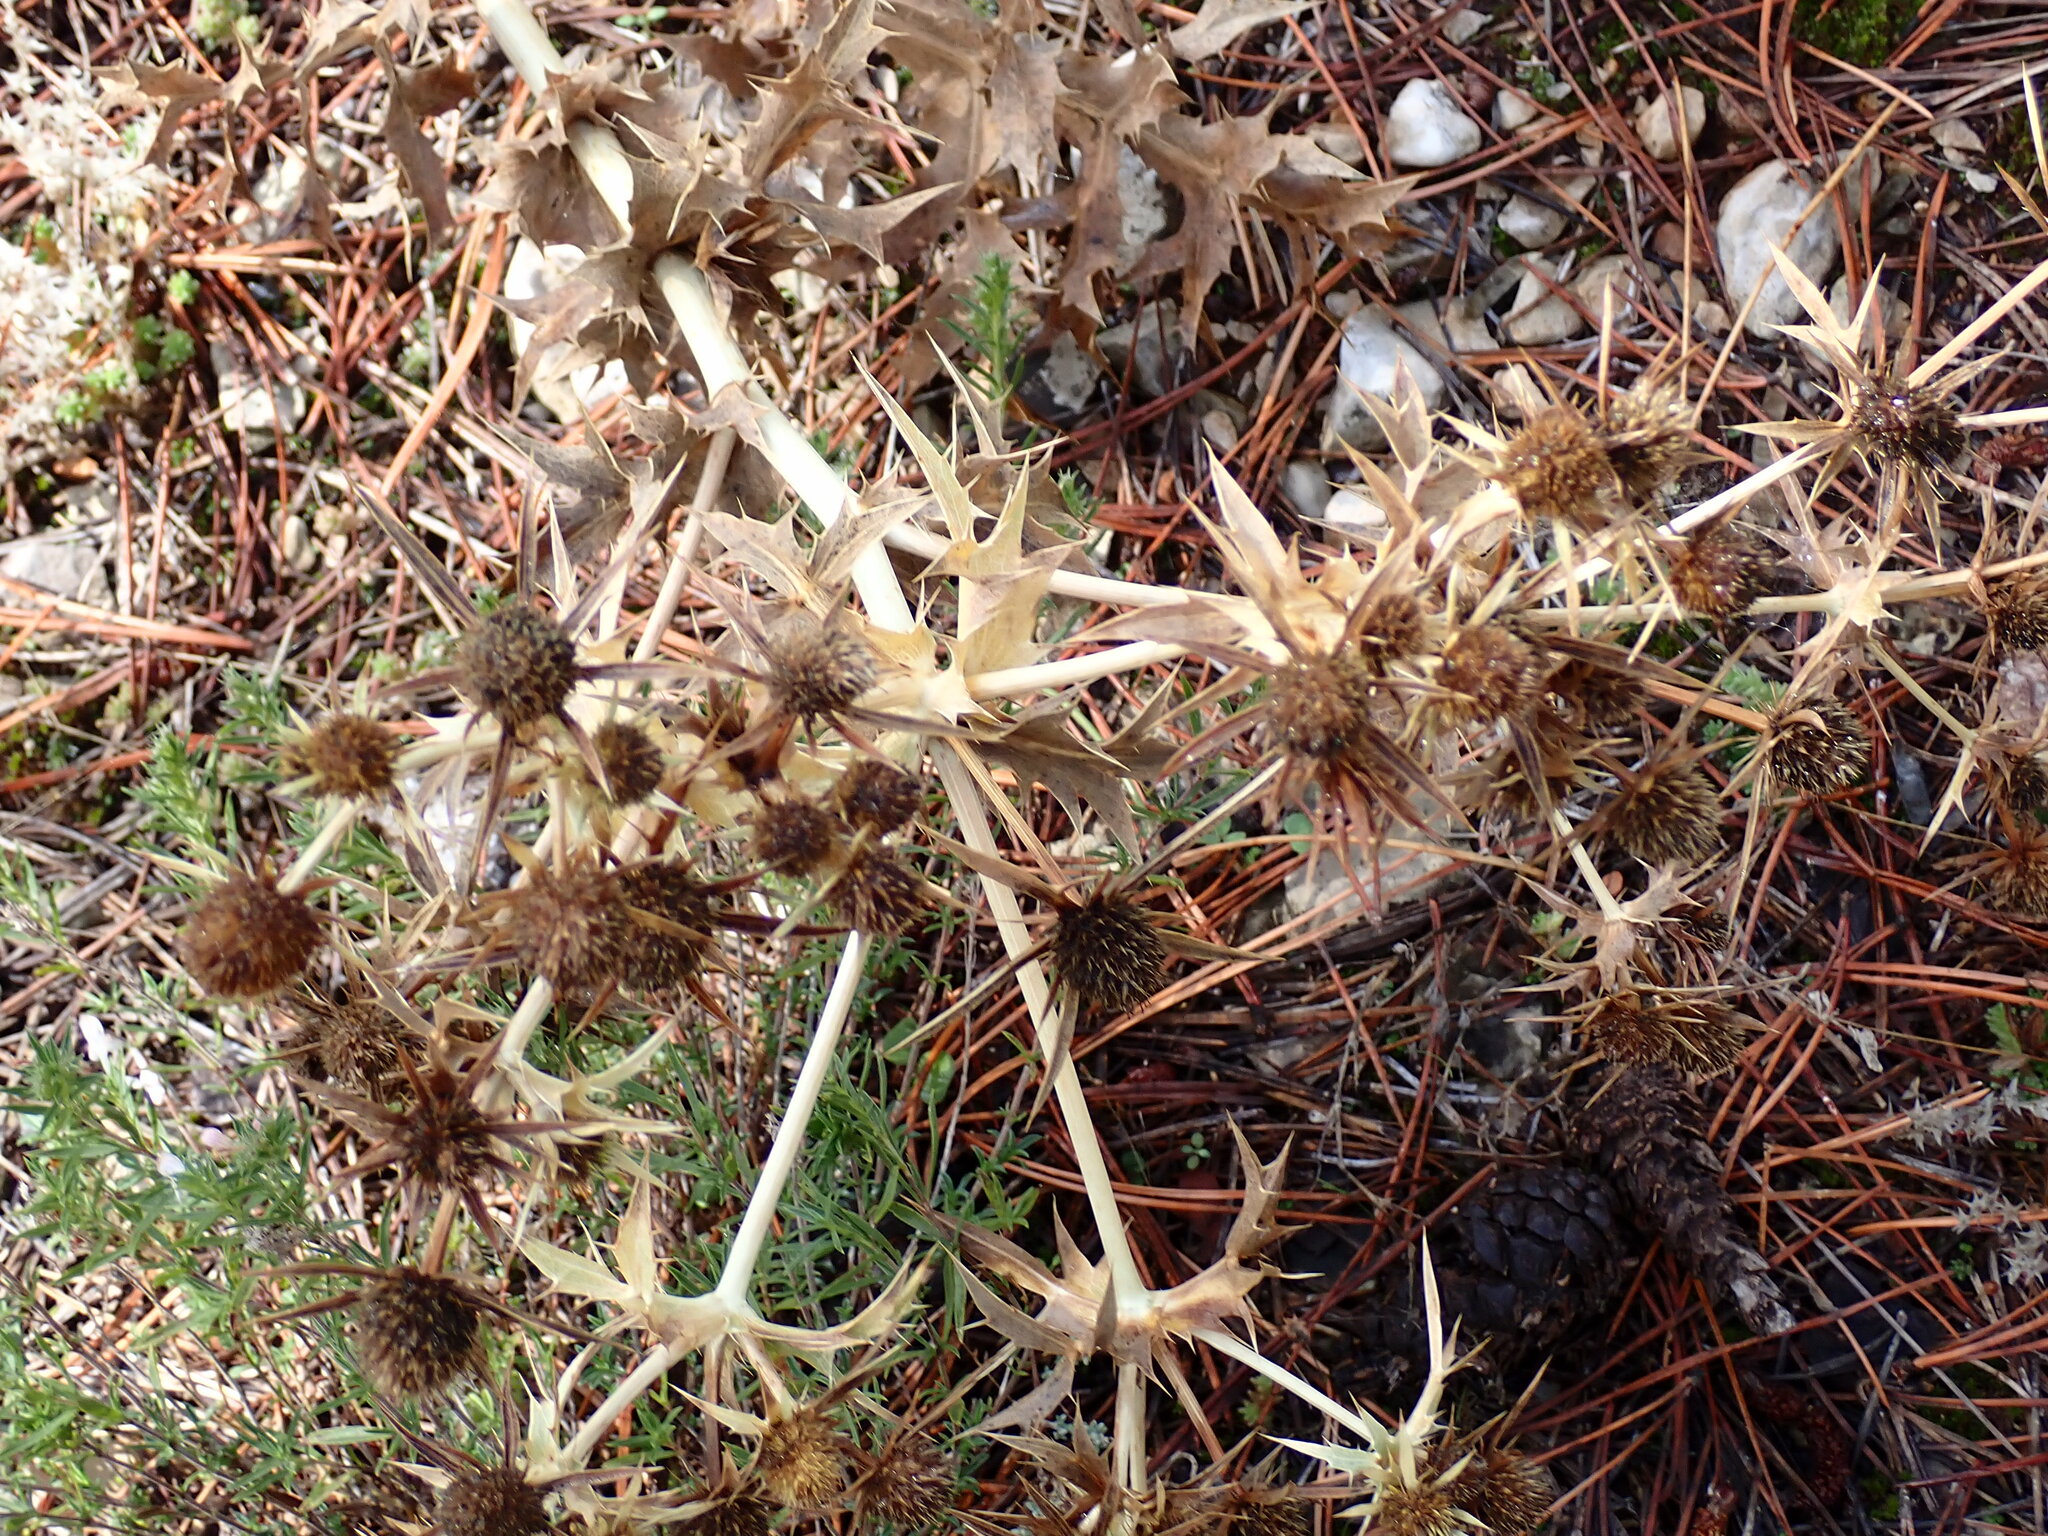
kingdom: Plantae
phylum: Tracheophyta
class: Magnoliopsida
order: Apiales
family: Apiaceae
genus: Eryngium
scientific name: Eryngium campestre
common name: Field eryngo
